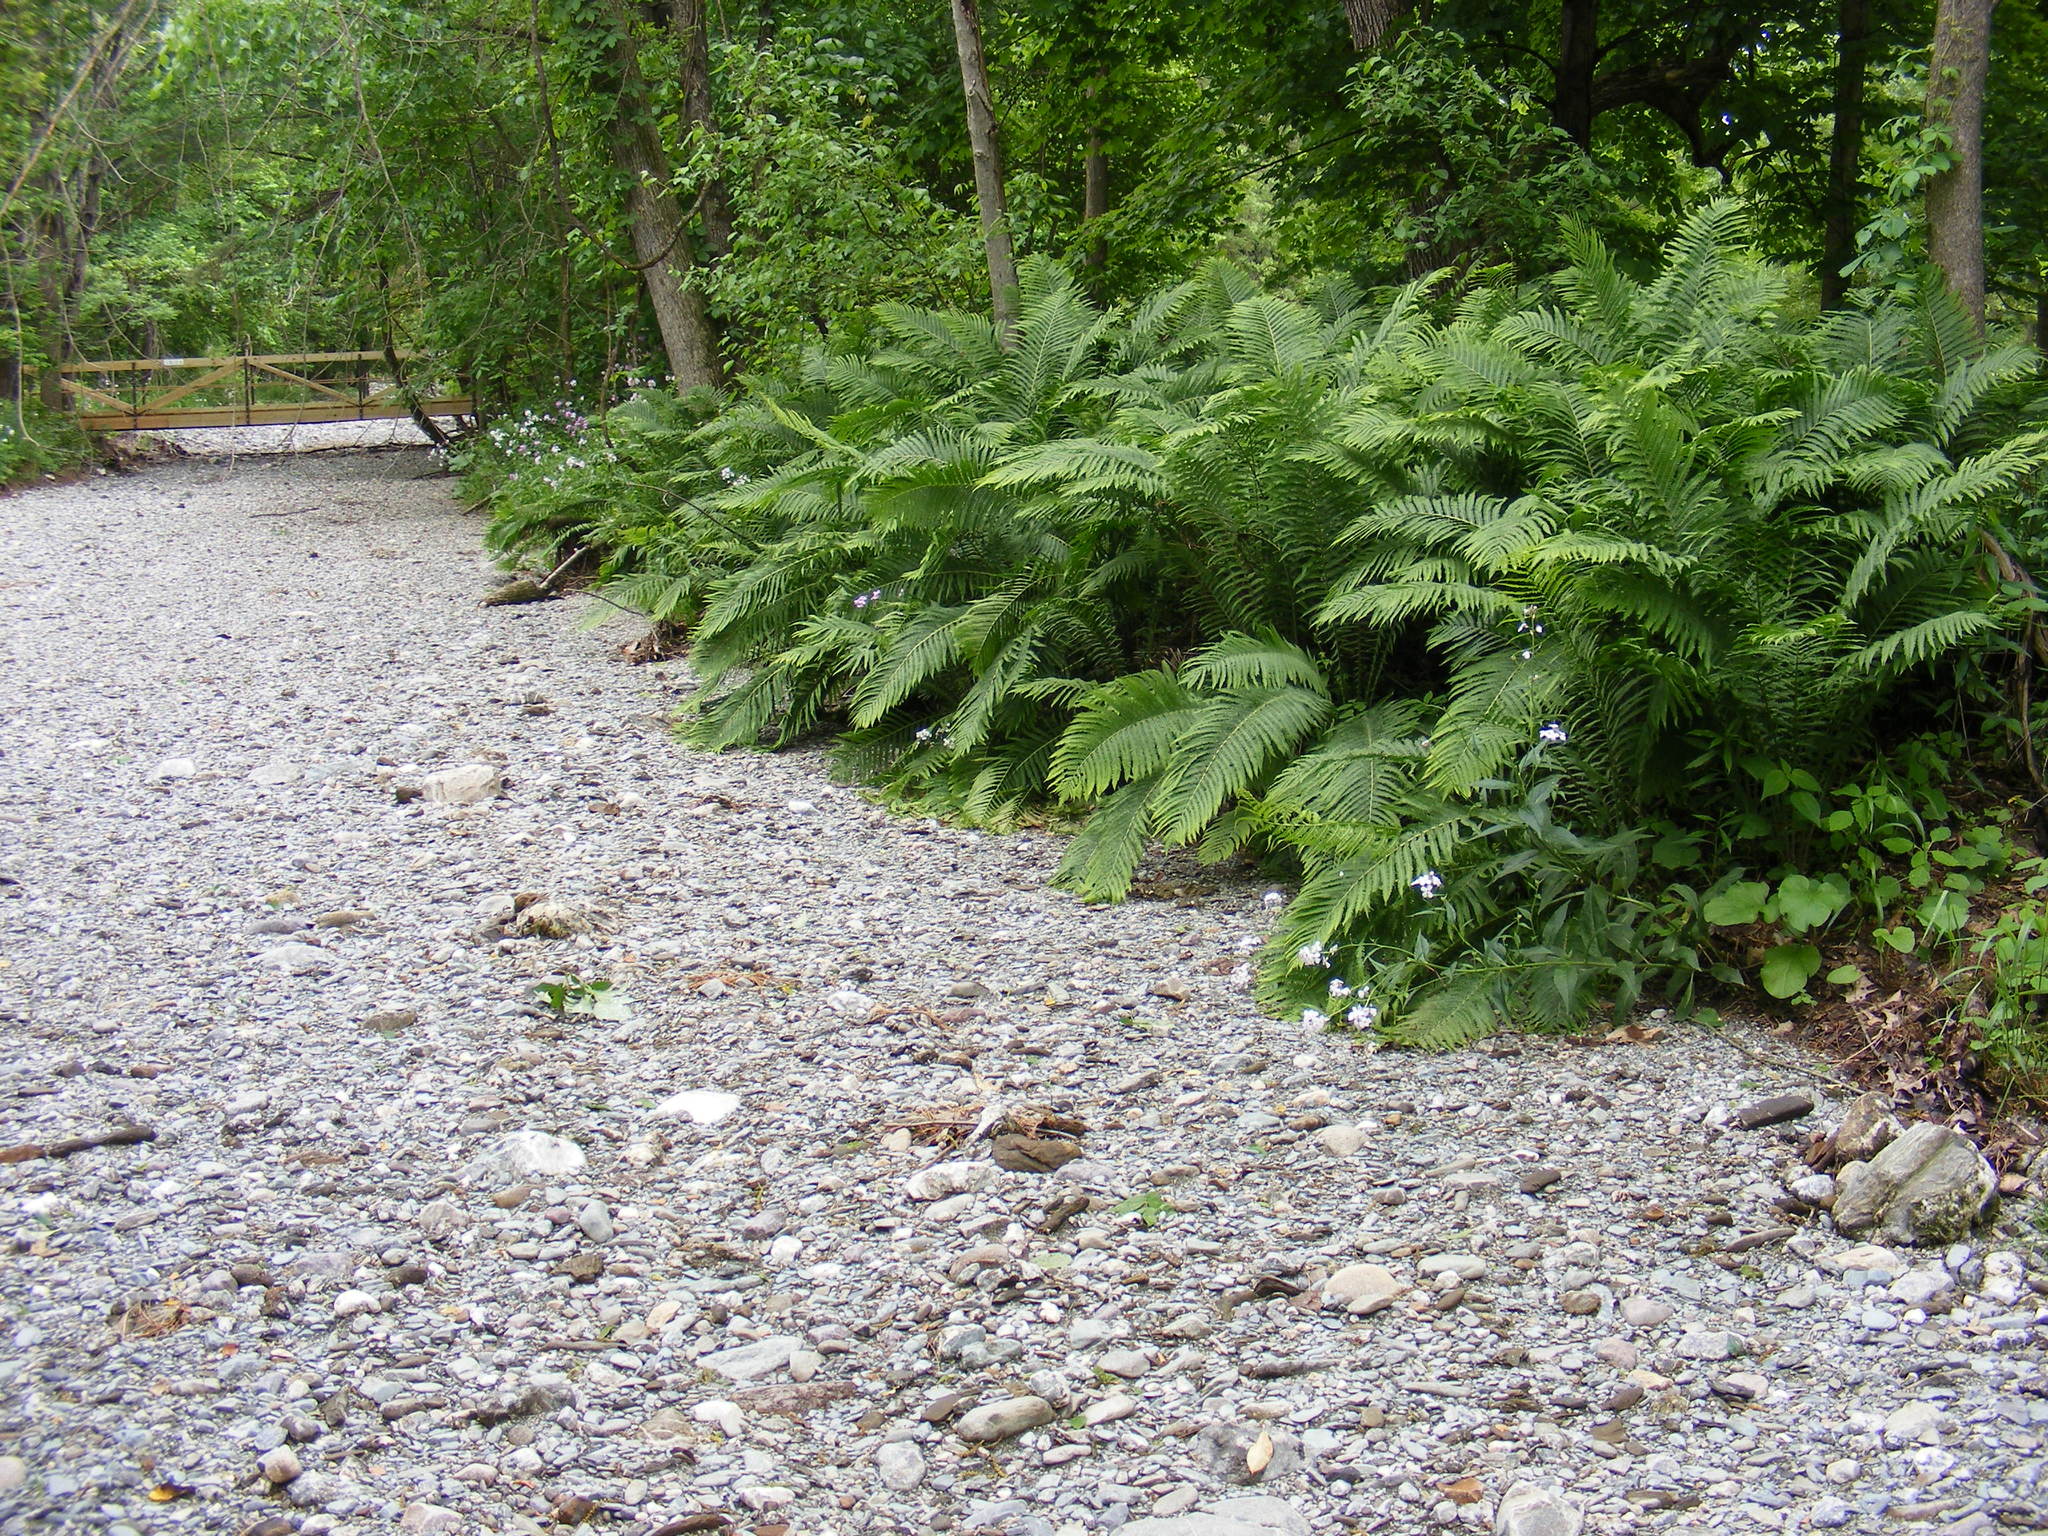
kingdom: Plantae
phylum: Tracheophyta
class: Polypodiopsida
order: Polypodiales
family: Onocleaceae
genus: Matteuccia
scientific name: Matteuccia struthiopteris
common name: Ostrich fern
